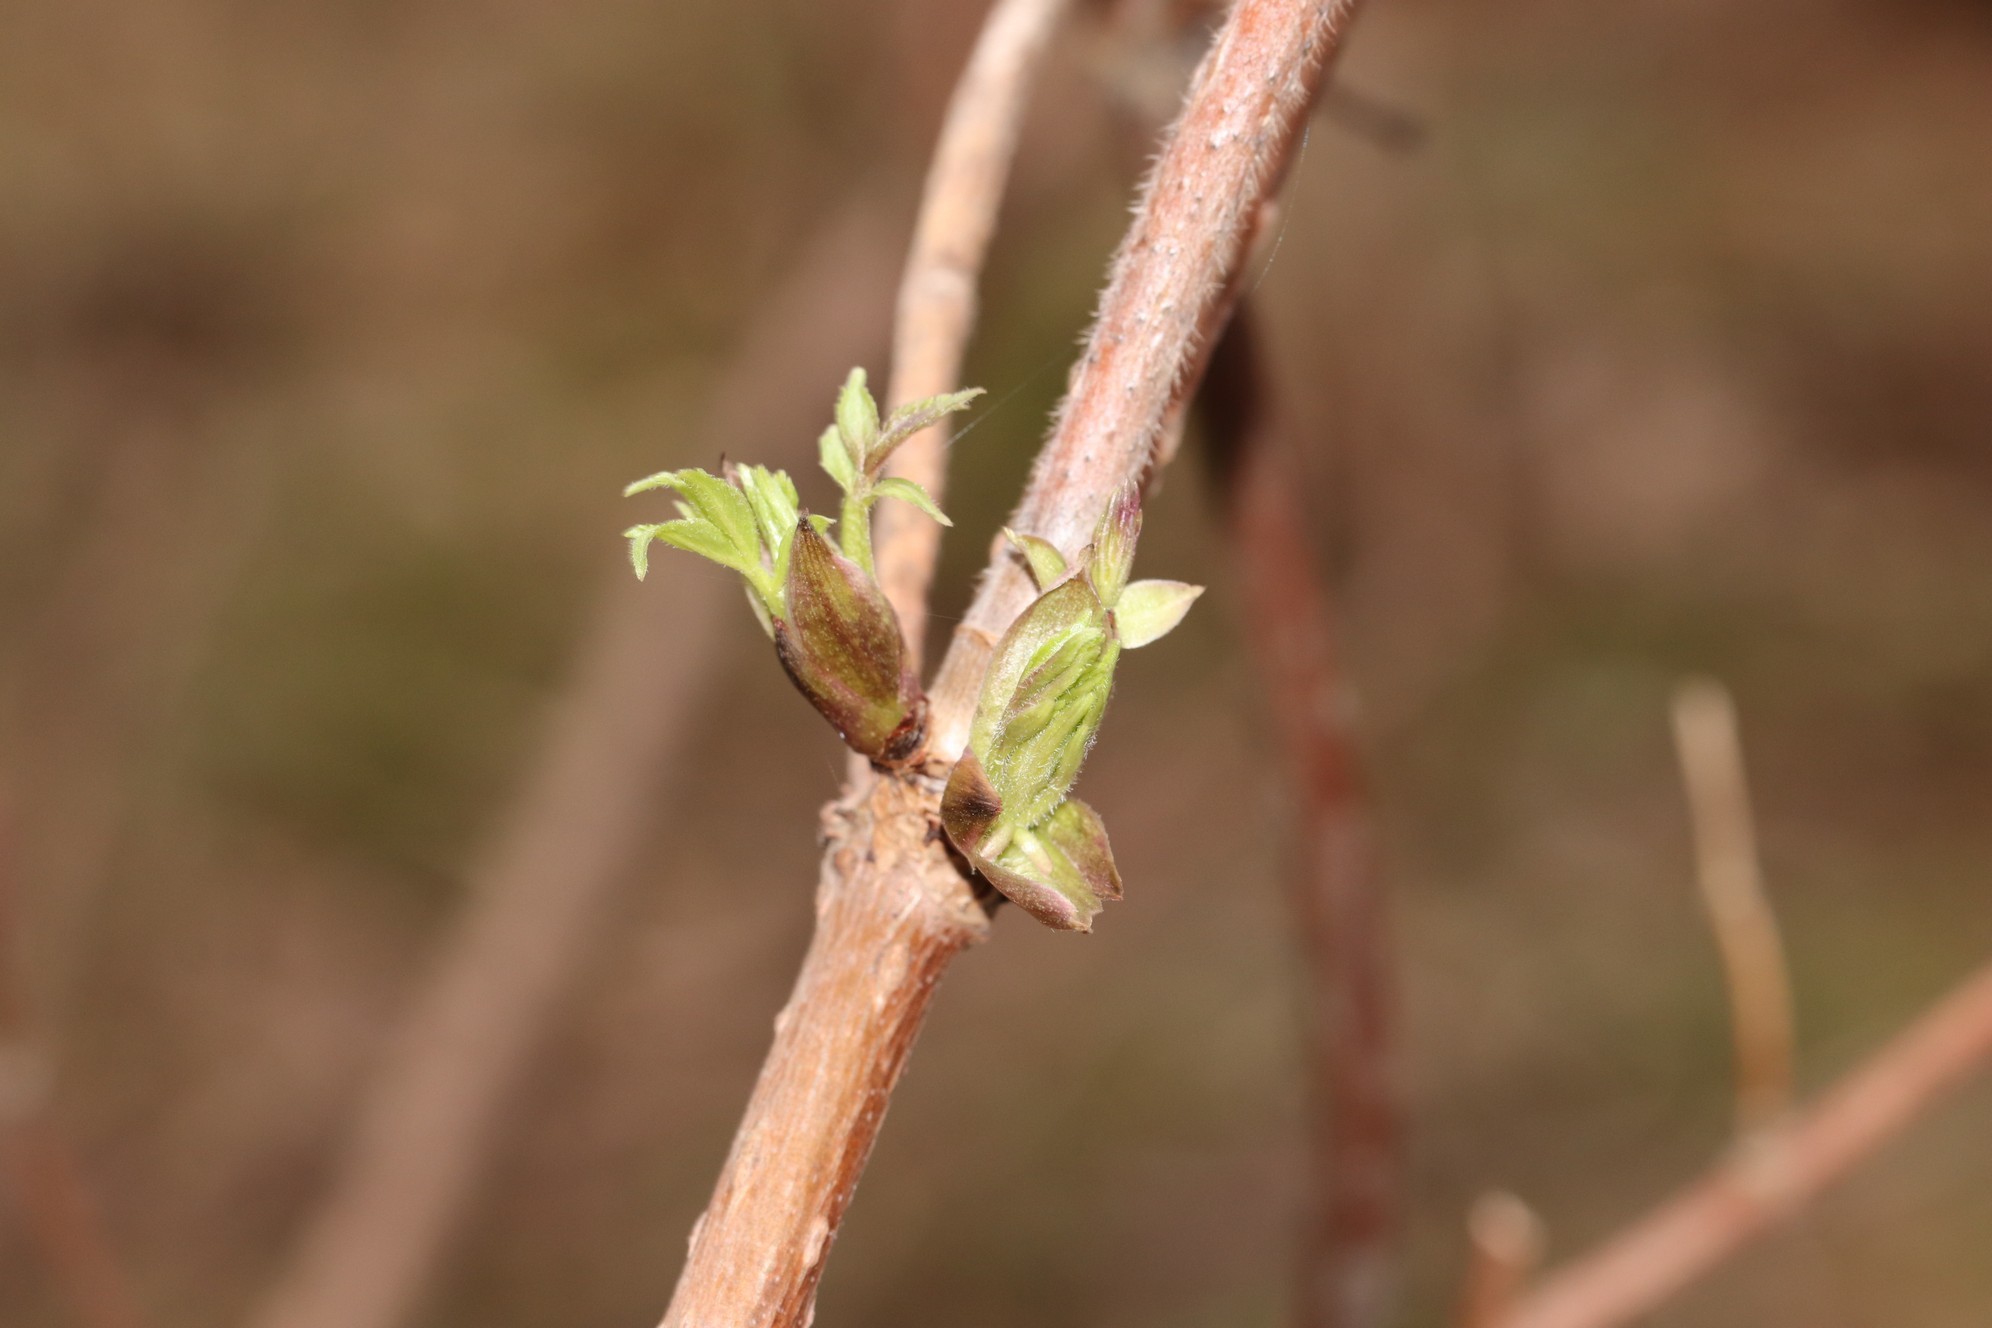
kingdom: Plantae
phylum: Tracheophyta
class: Magnoliopsida
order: Dipsacales
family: Viburnaceae
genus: Sambucus
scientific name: Sambucus sibirica
